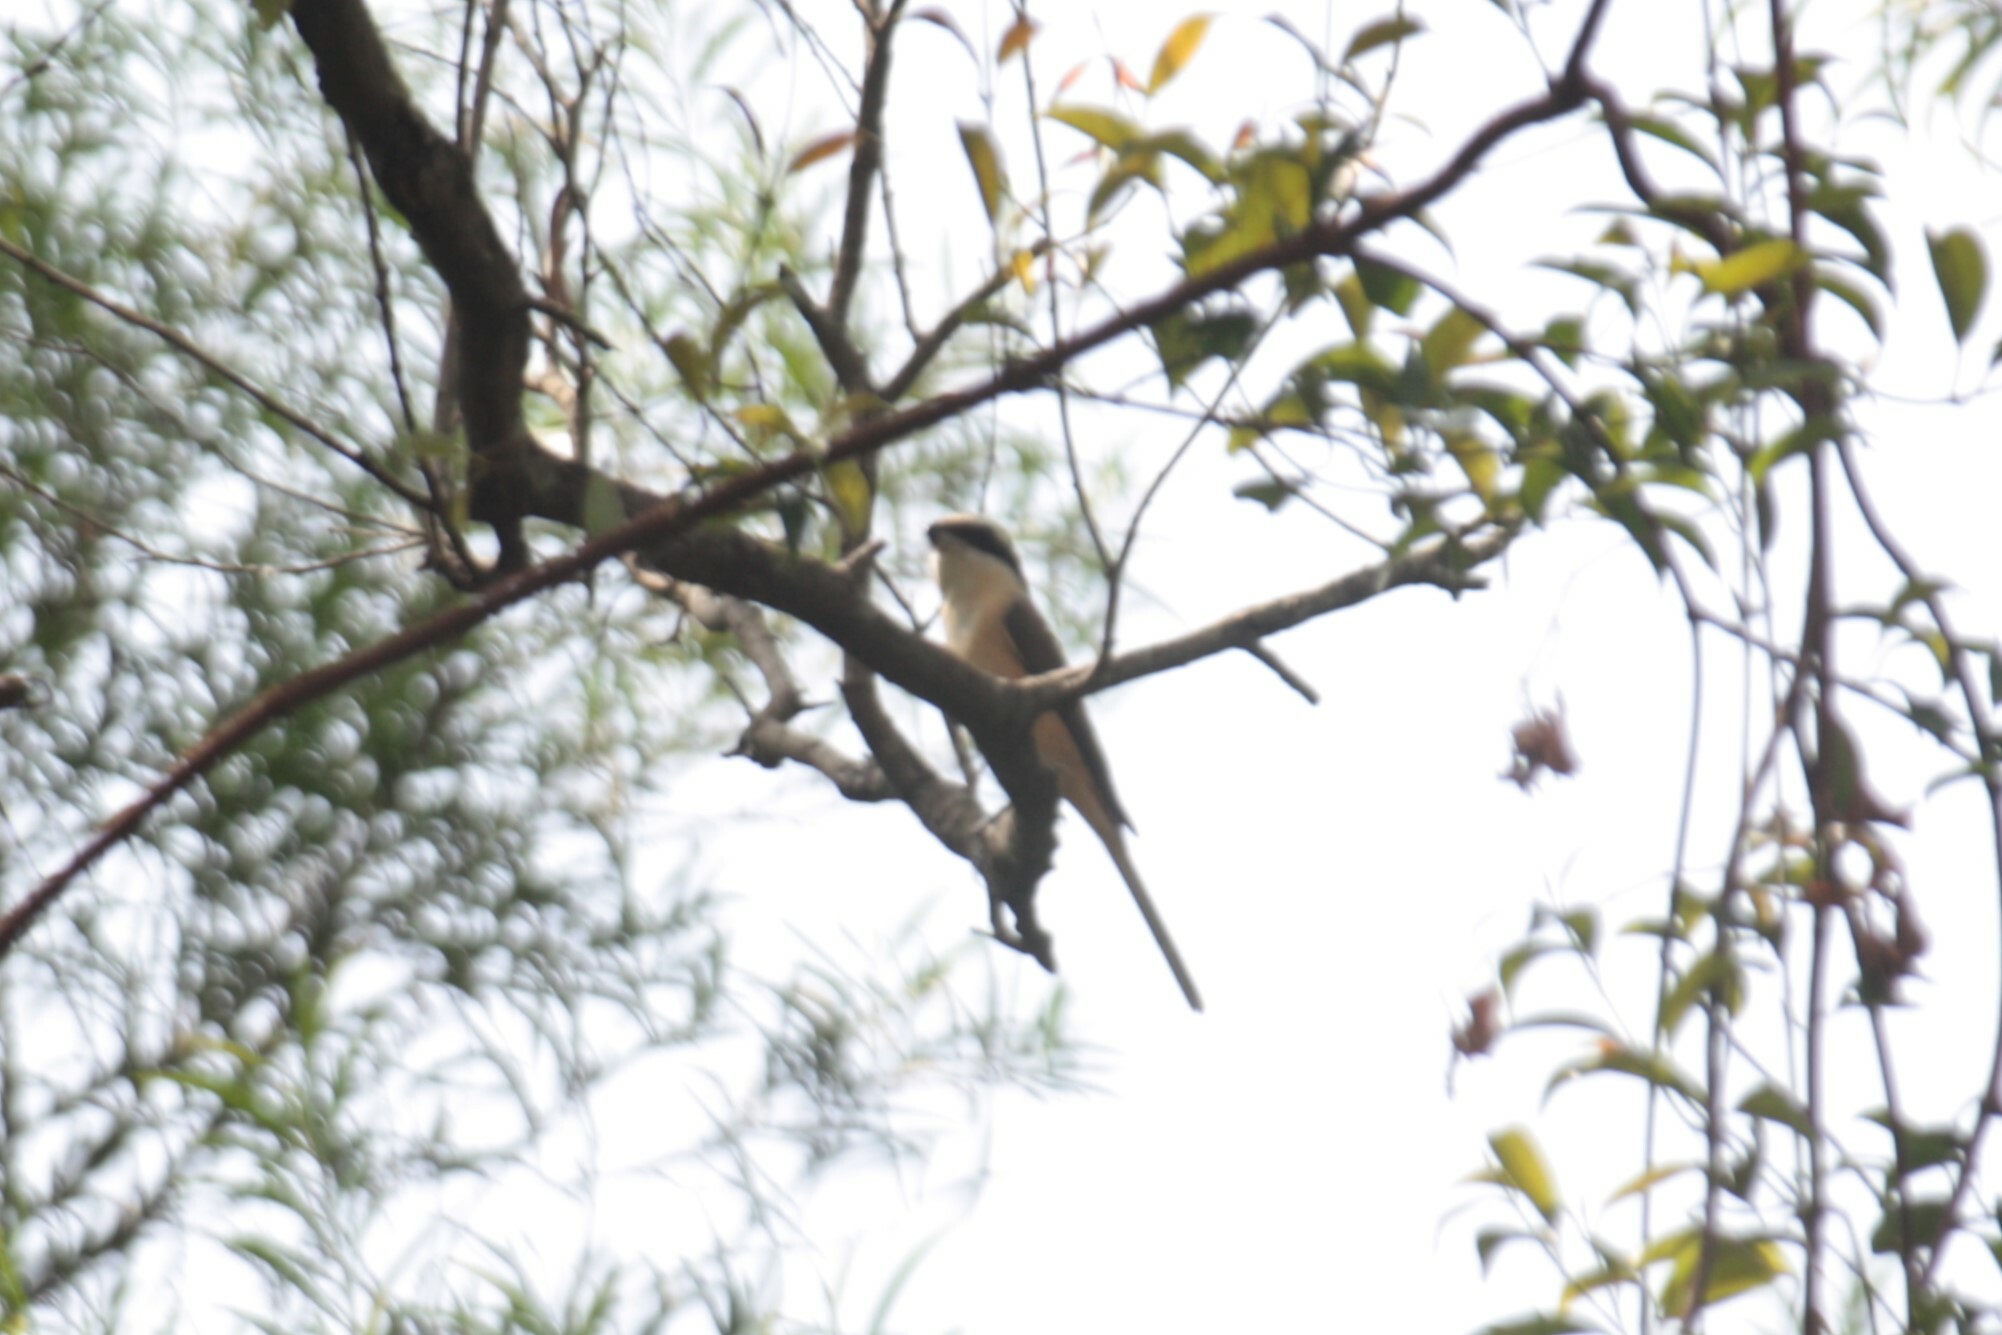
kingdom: Animalia
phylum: Chordata
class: Aves
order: Passeriformes
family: Laniidae
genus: Lanius
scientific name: Lanius cristatus
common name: Brown shrike
